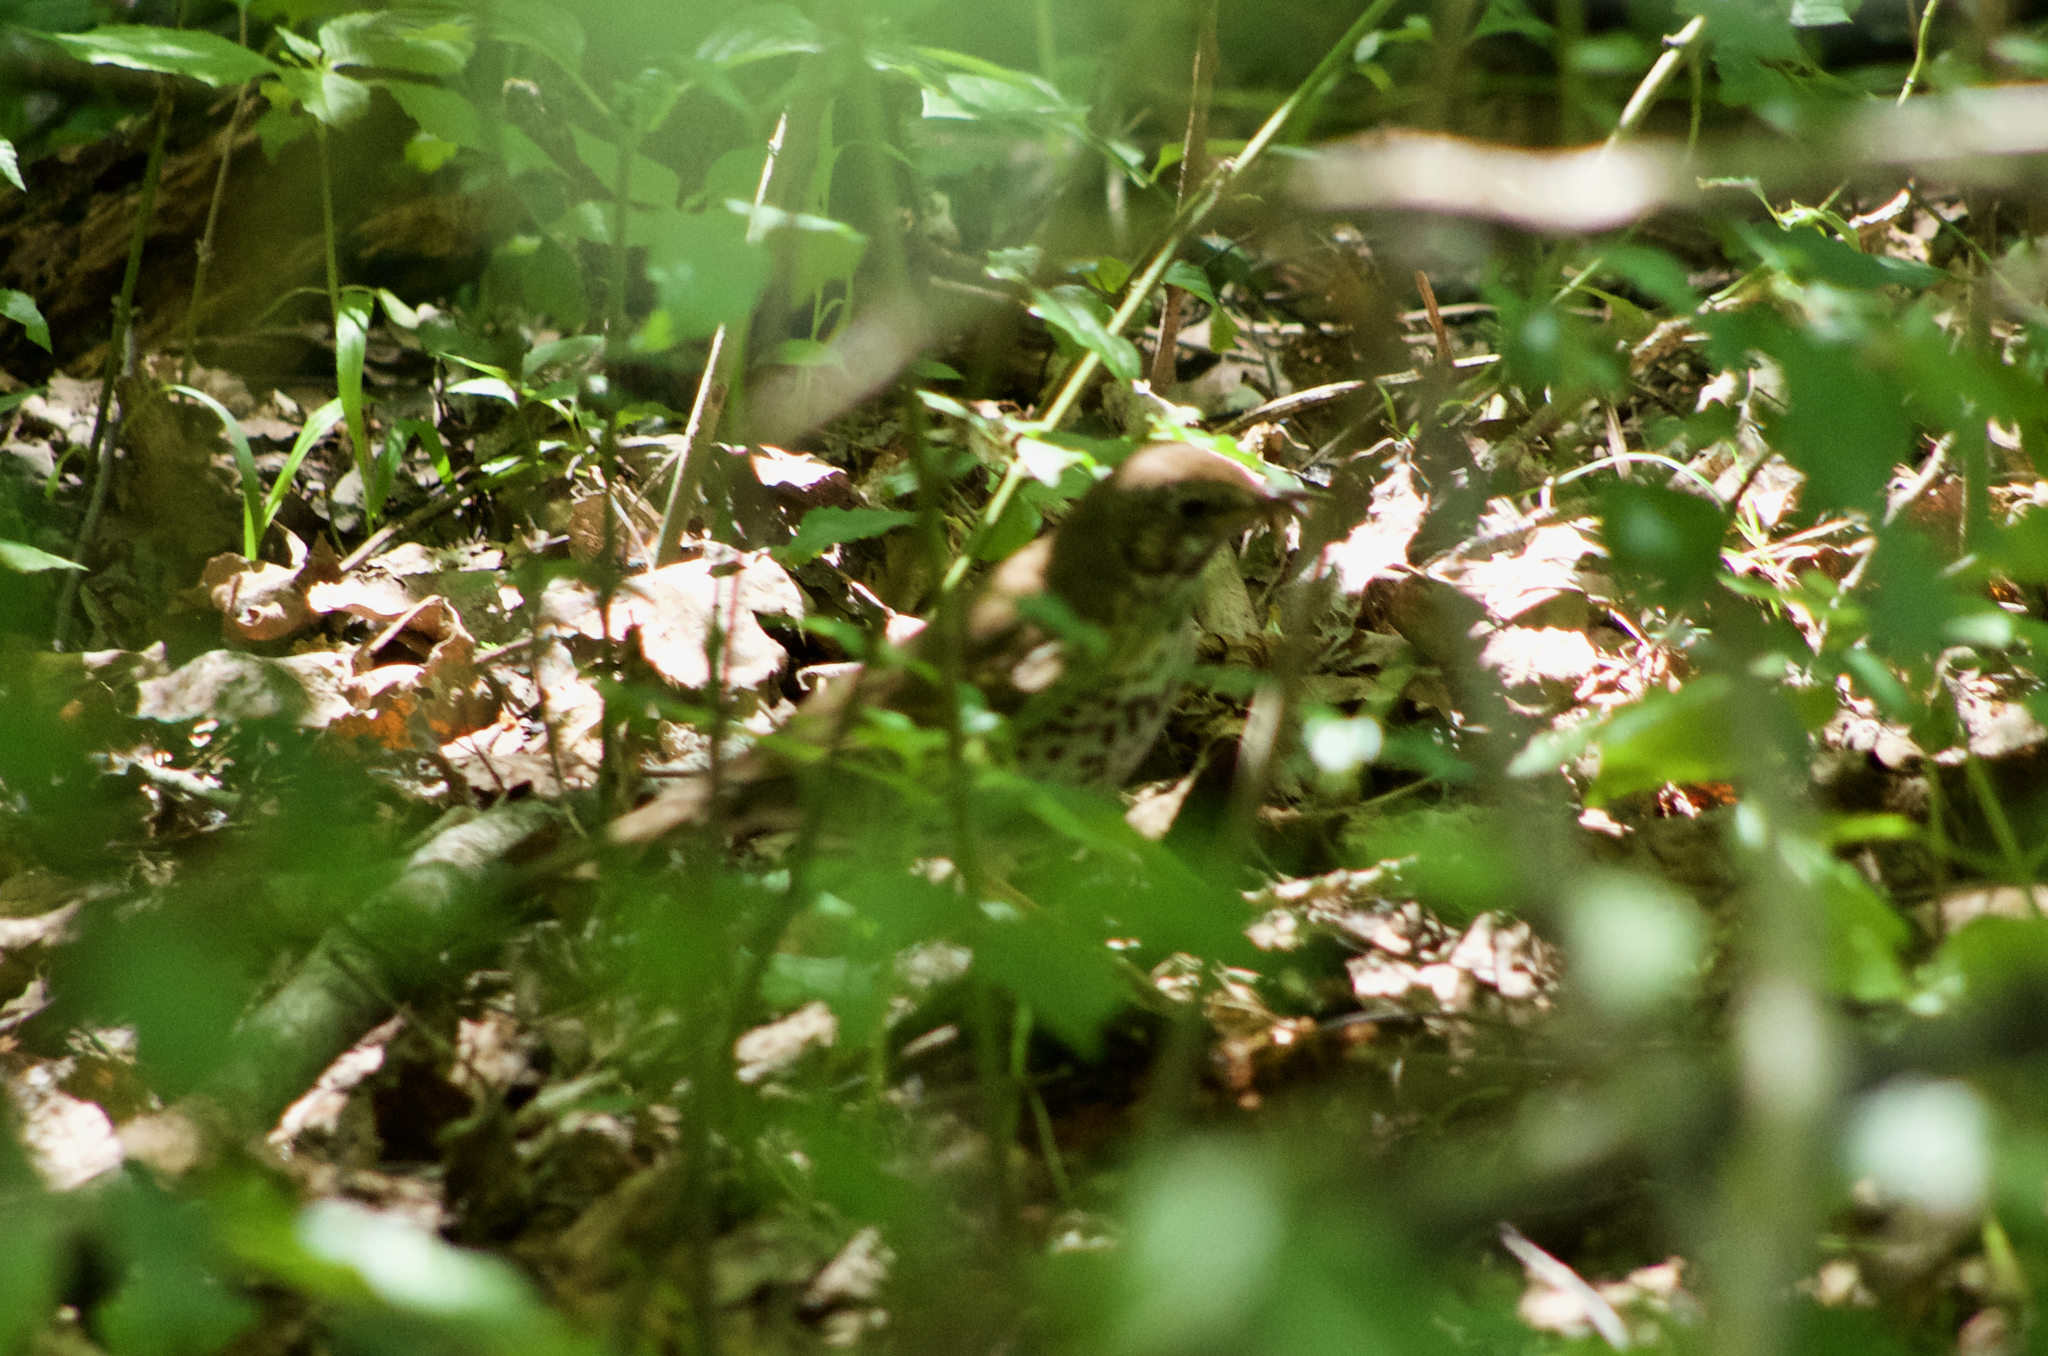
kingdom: Animalia
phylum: Chordata
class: Aves
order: Passeriformes
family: Turdidae
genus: Turdus
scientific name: Turdus philomelos
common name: Song thrush
